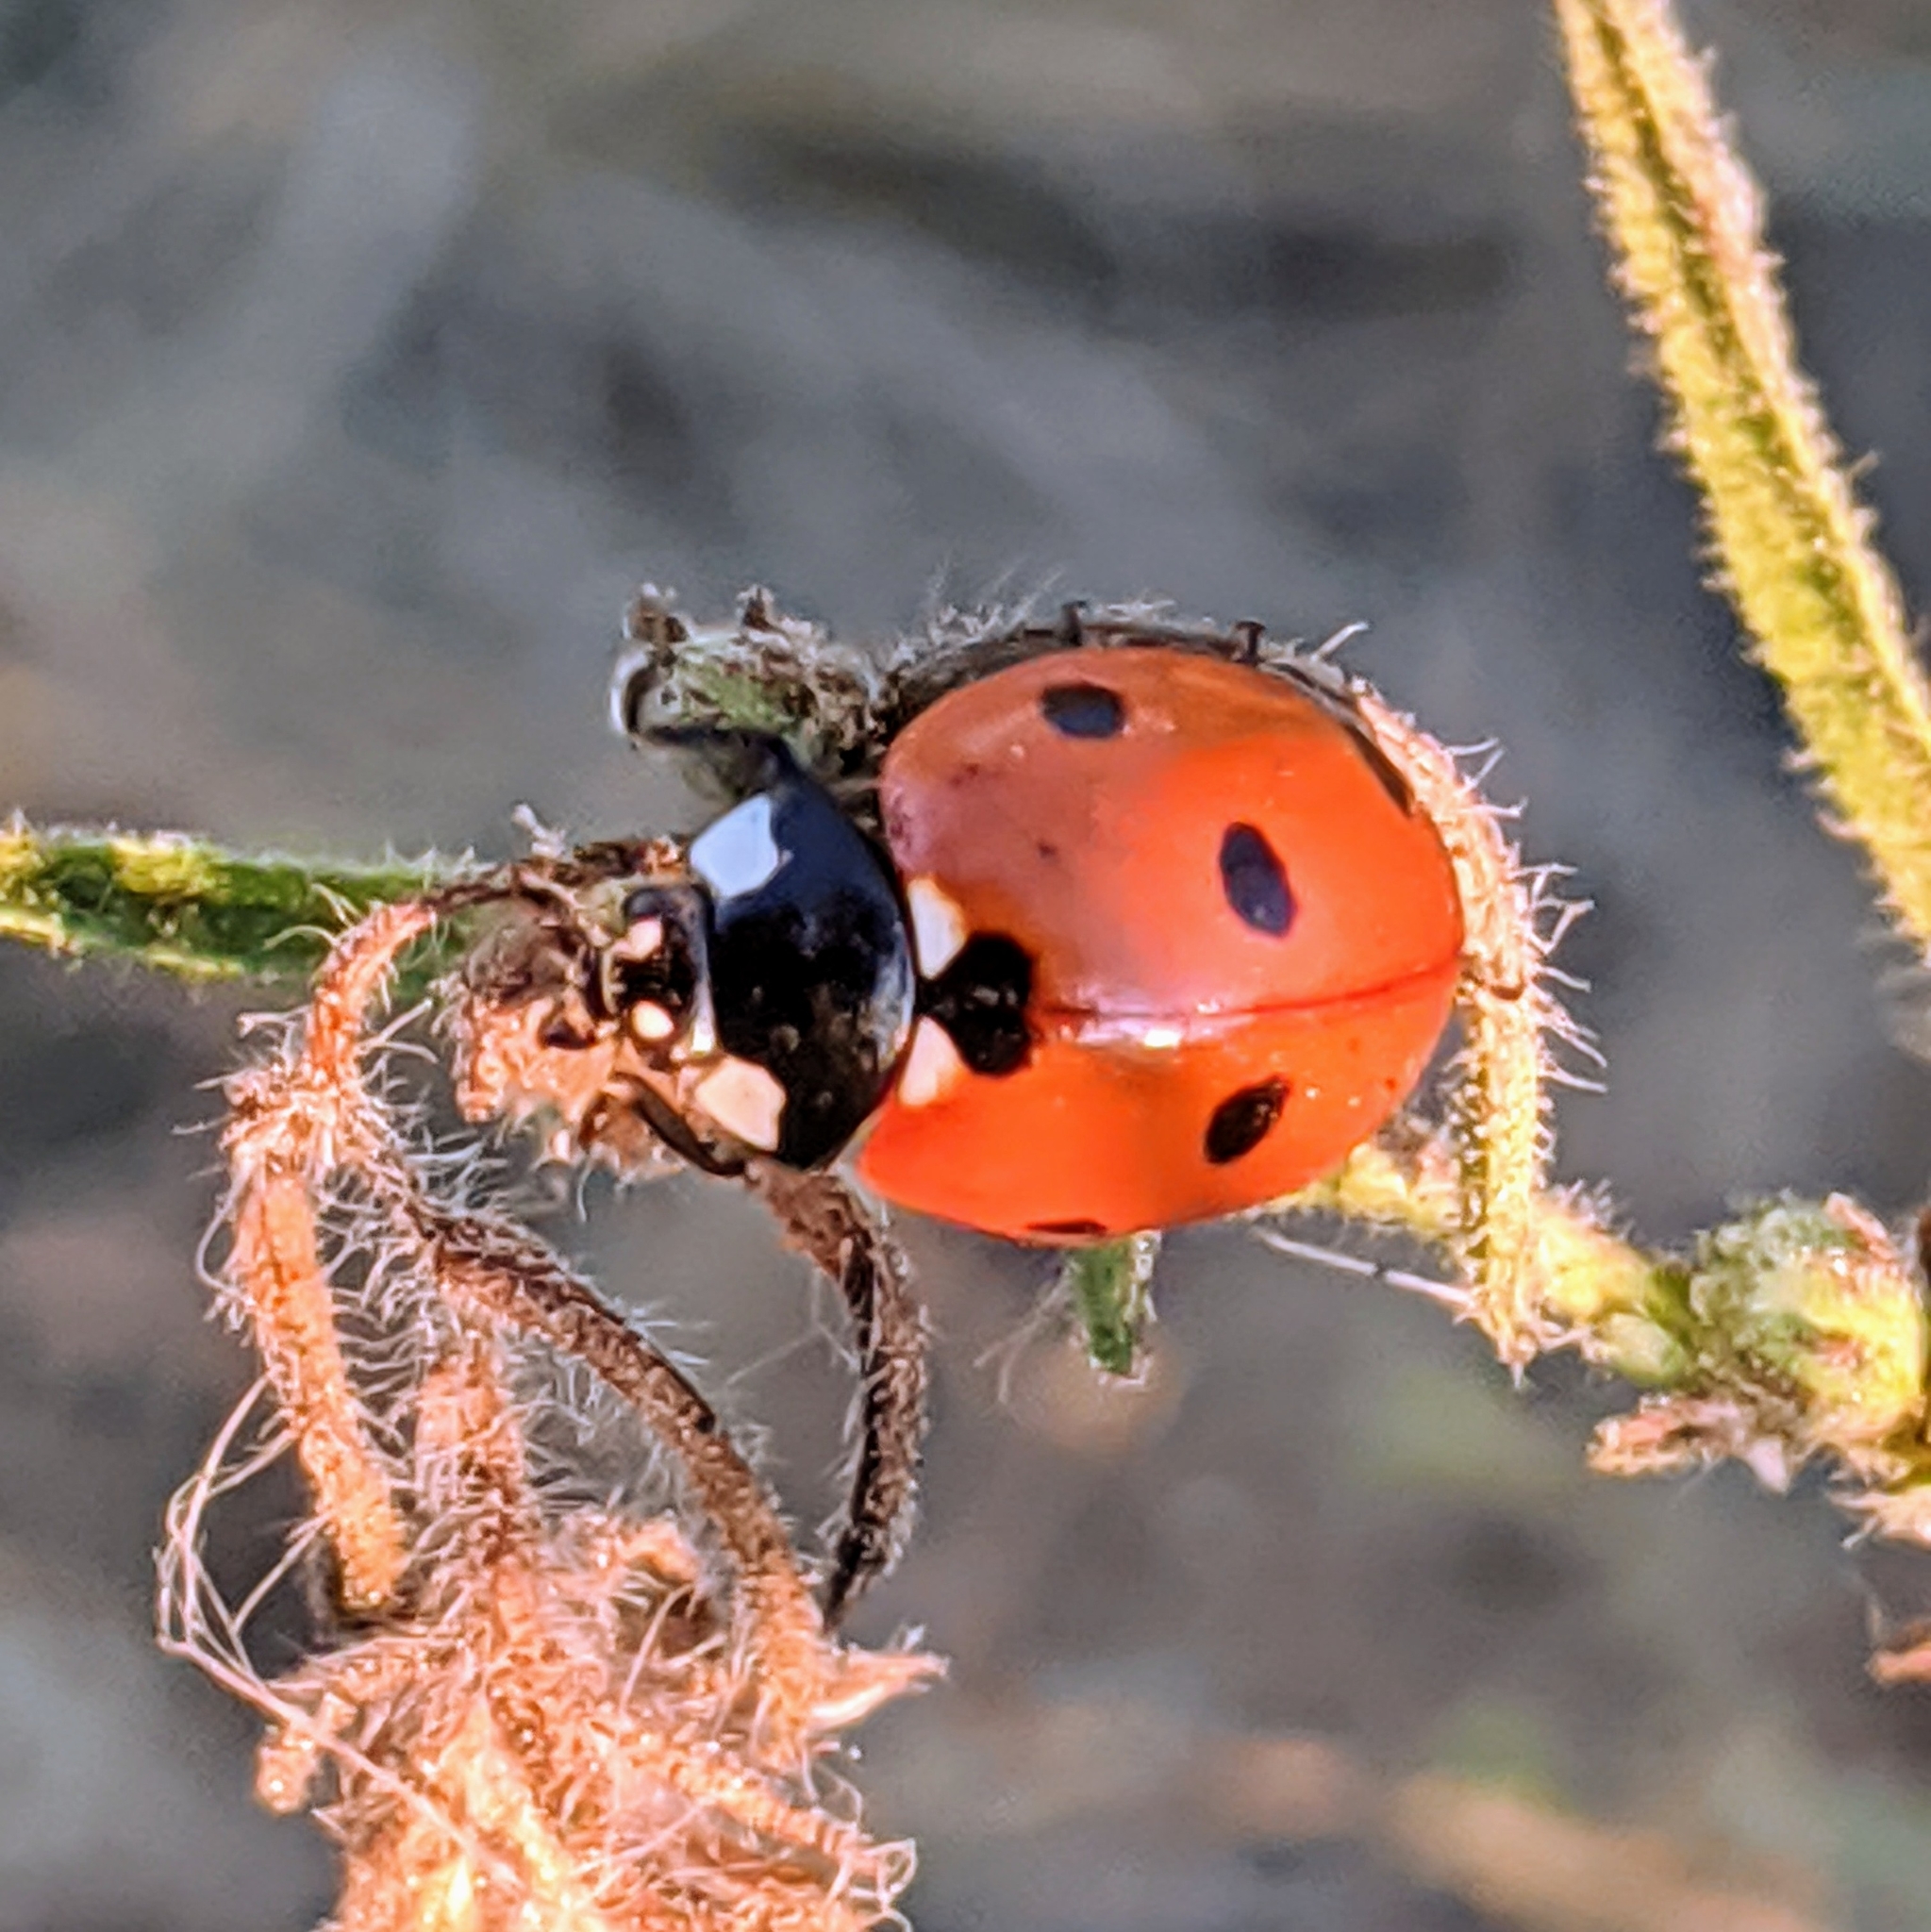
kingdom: Animalia
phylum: Arthropoda
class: Insecta
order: Coleoptera
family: Coccinellidae
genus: Coccinella
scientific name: Coccinella septempunctata
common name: Sevenspotted lady beetle
